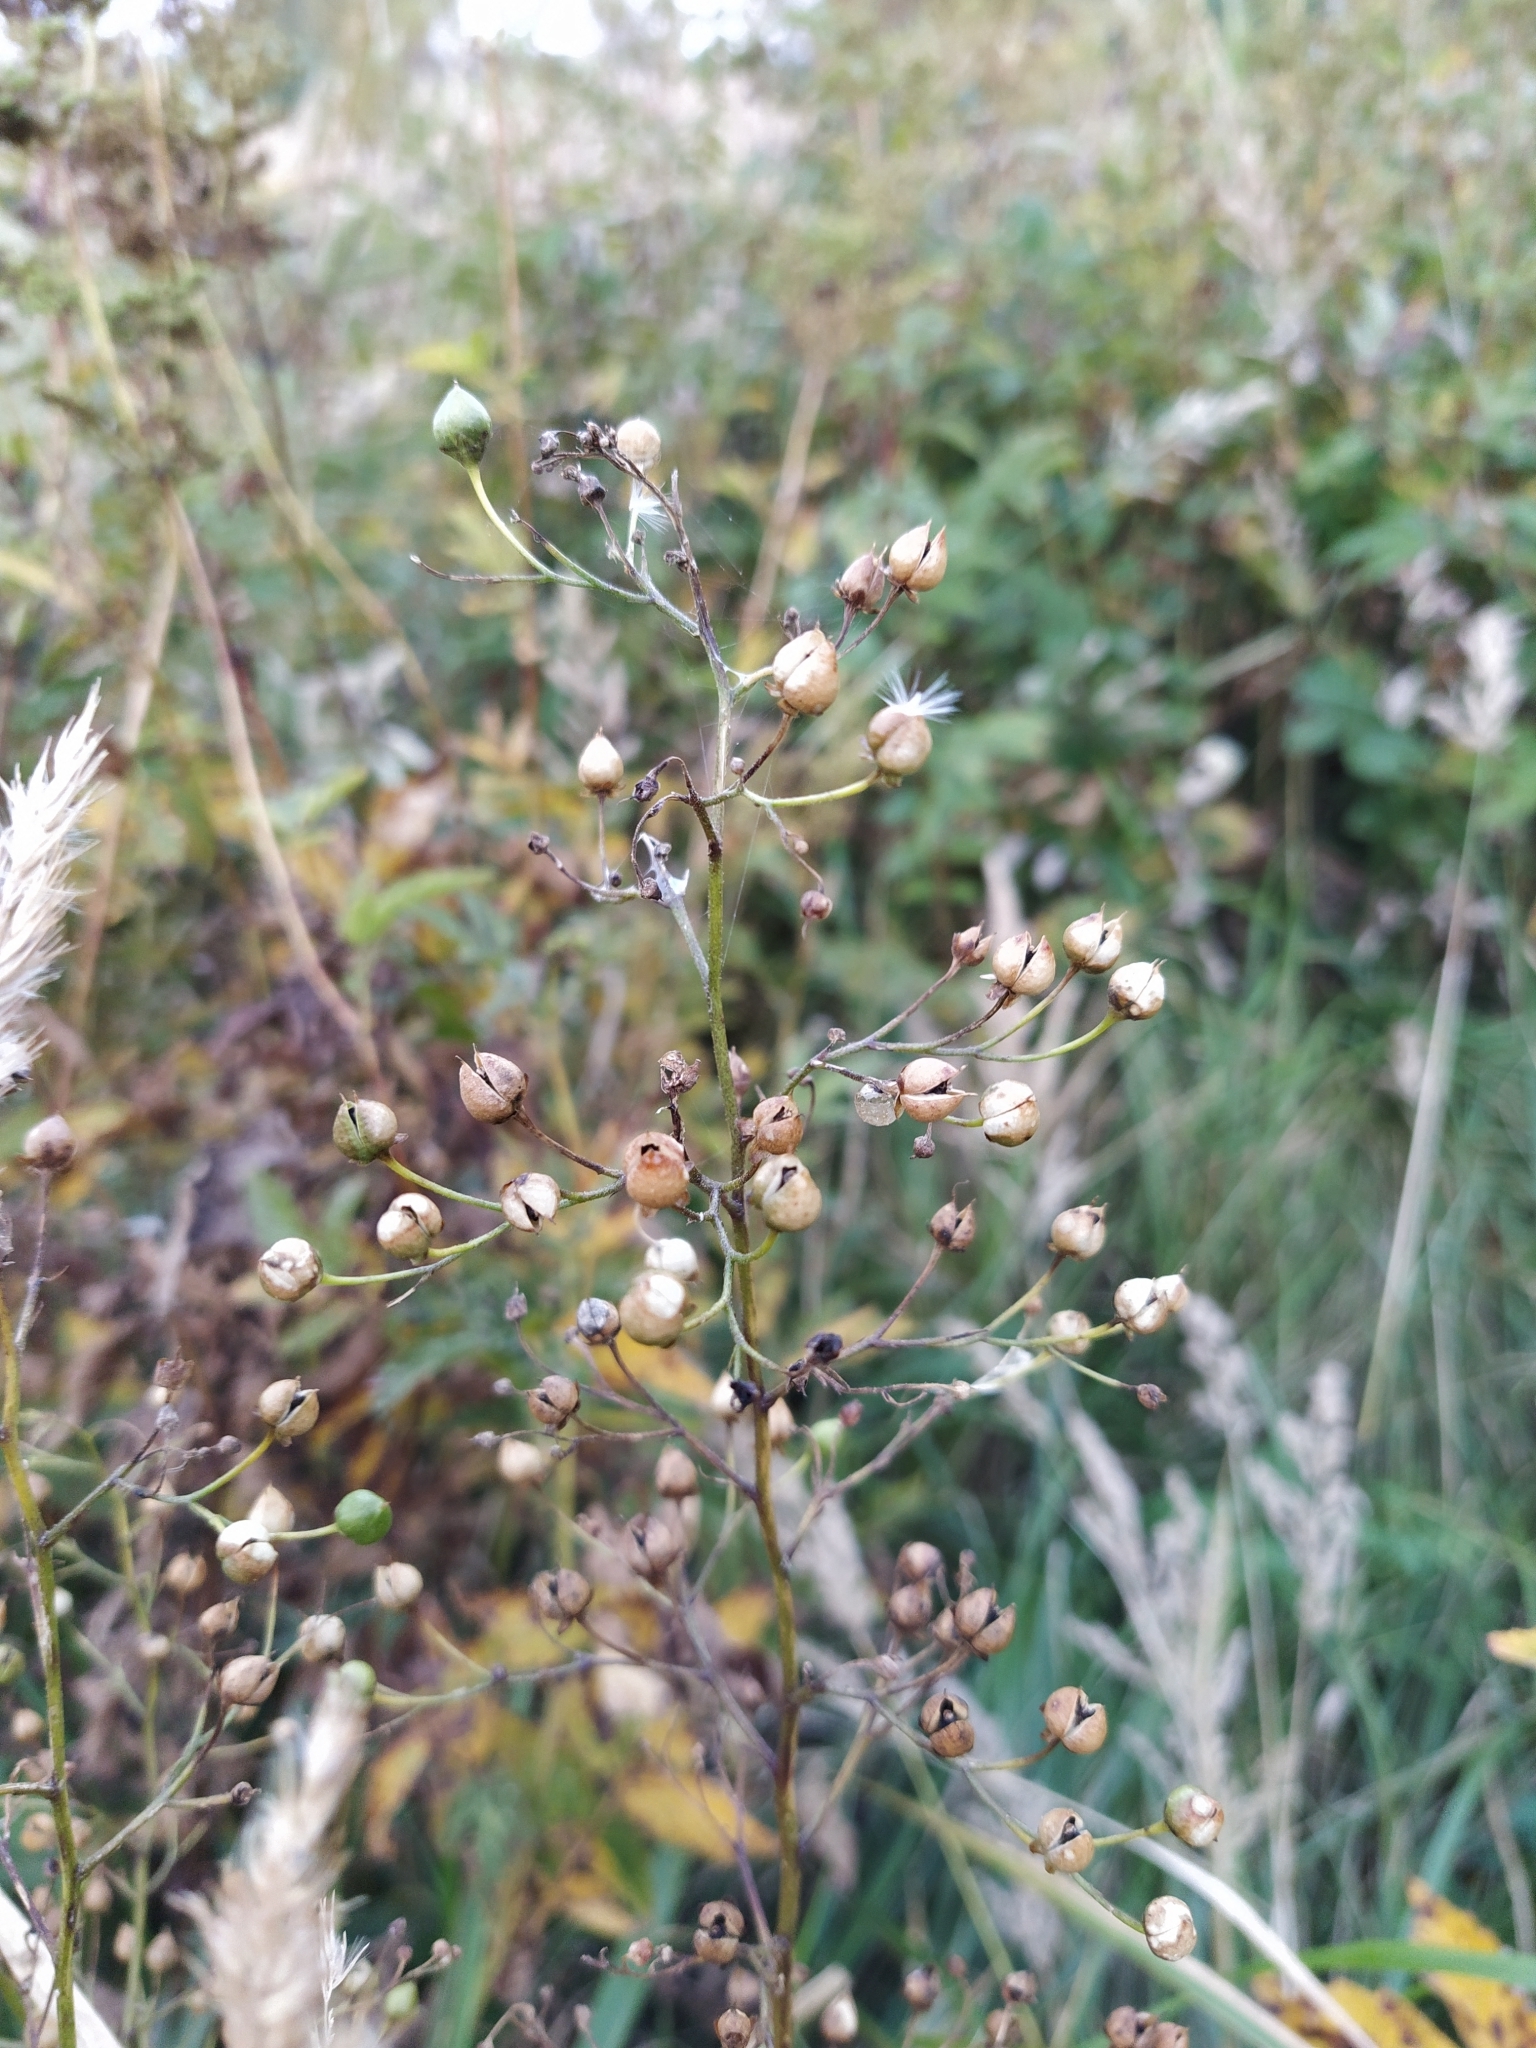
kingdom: Plantae
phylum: Tracheophyta
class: Magnoliopsida
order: Lamiales
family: Scrophulariaceae
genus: Scrophularia
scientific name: Scrophularia nodosa
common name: Common figwort
